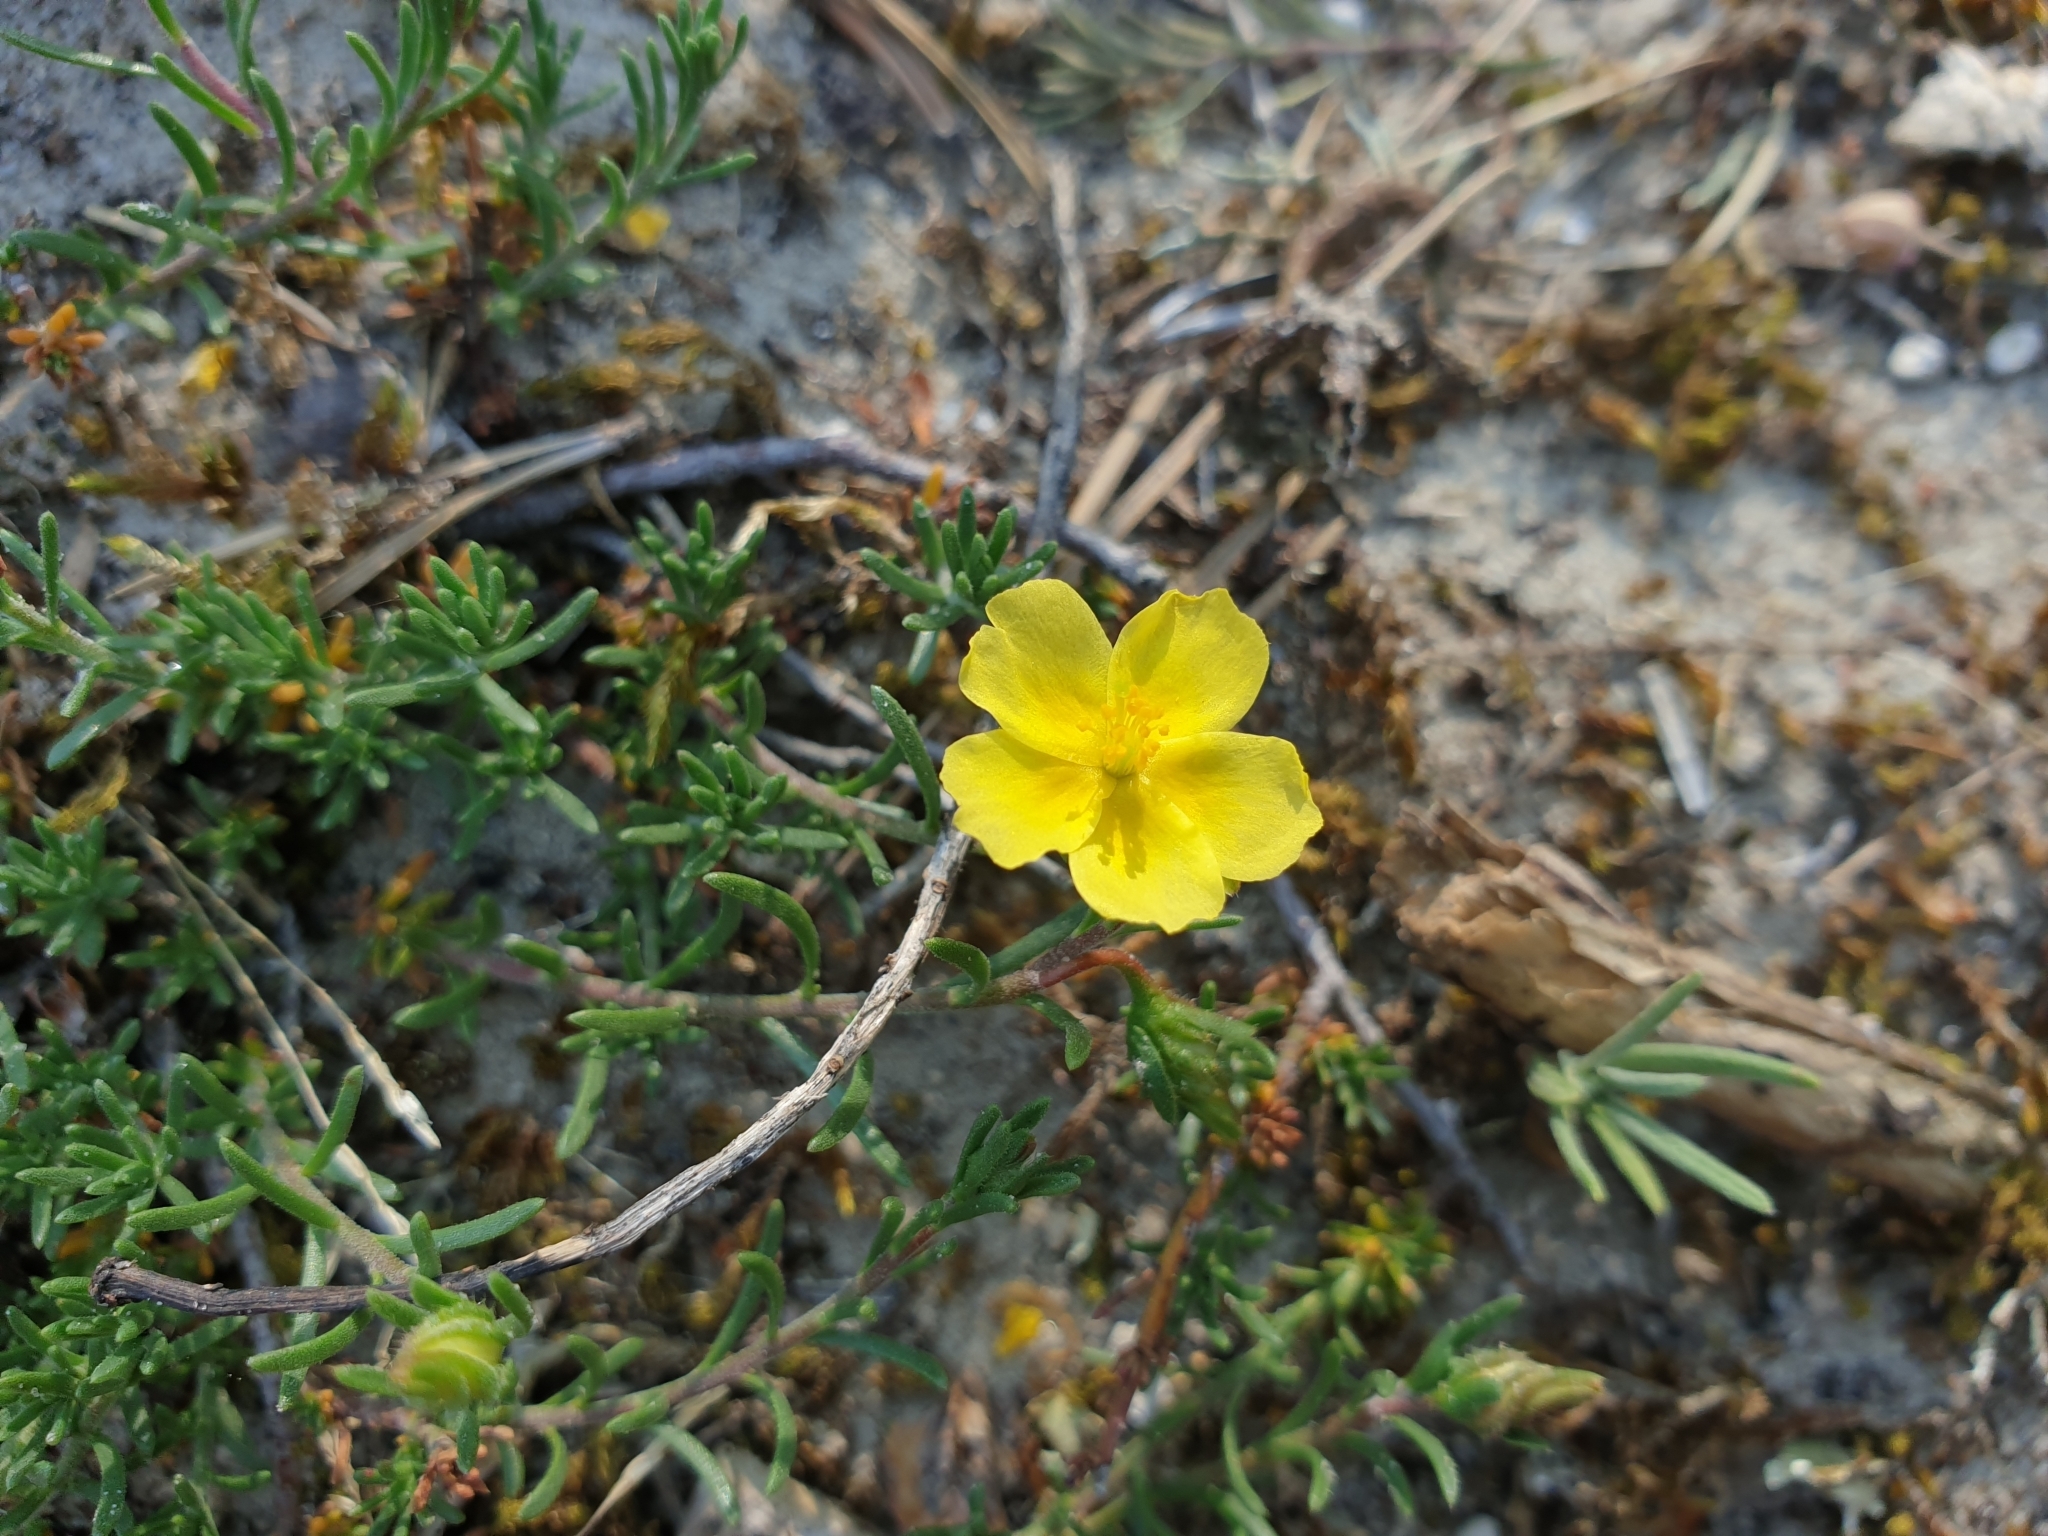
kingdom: Plantae
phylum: Tracheophyta
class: Magnoliopsida
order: Malvales
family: Cistaceae
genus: Fumana
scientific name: Fumana procumbens
